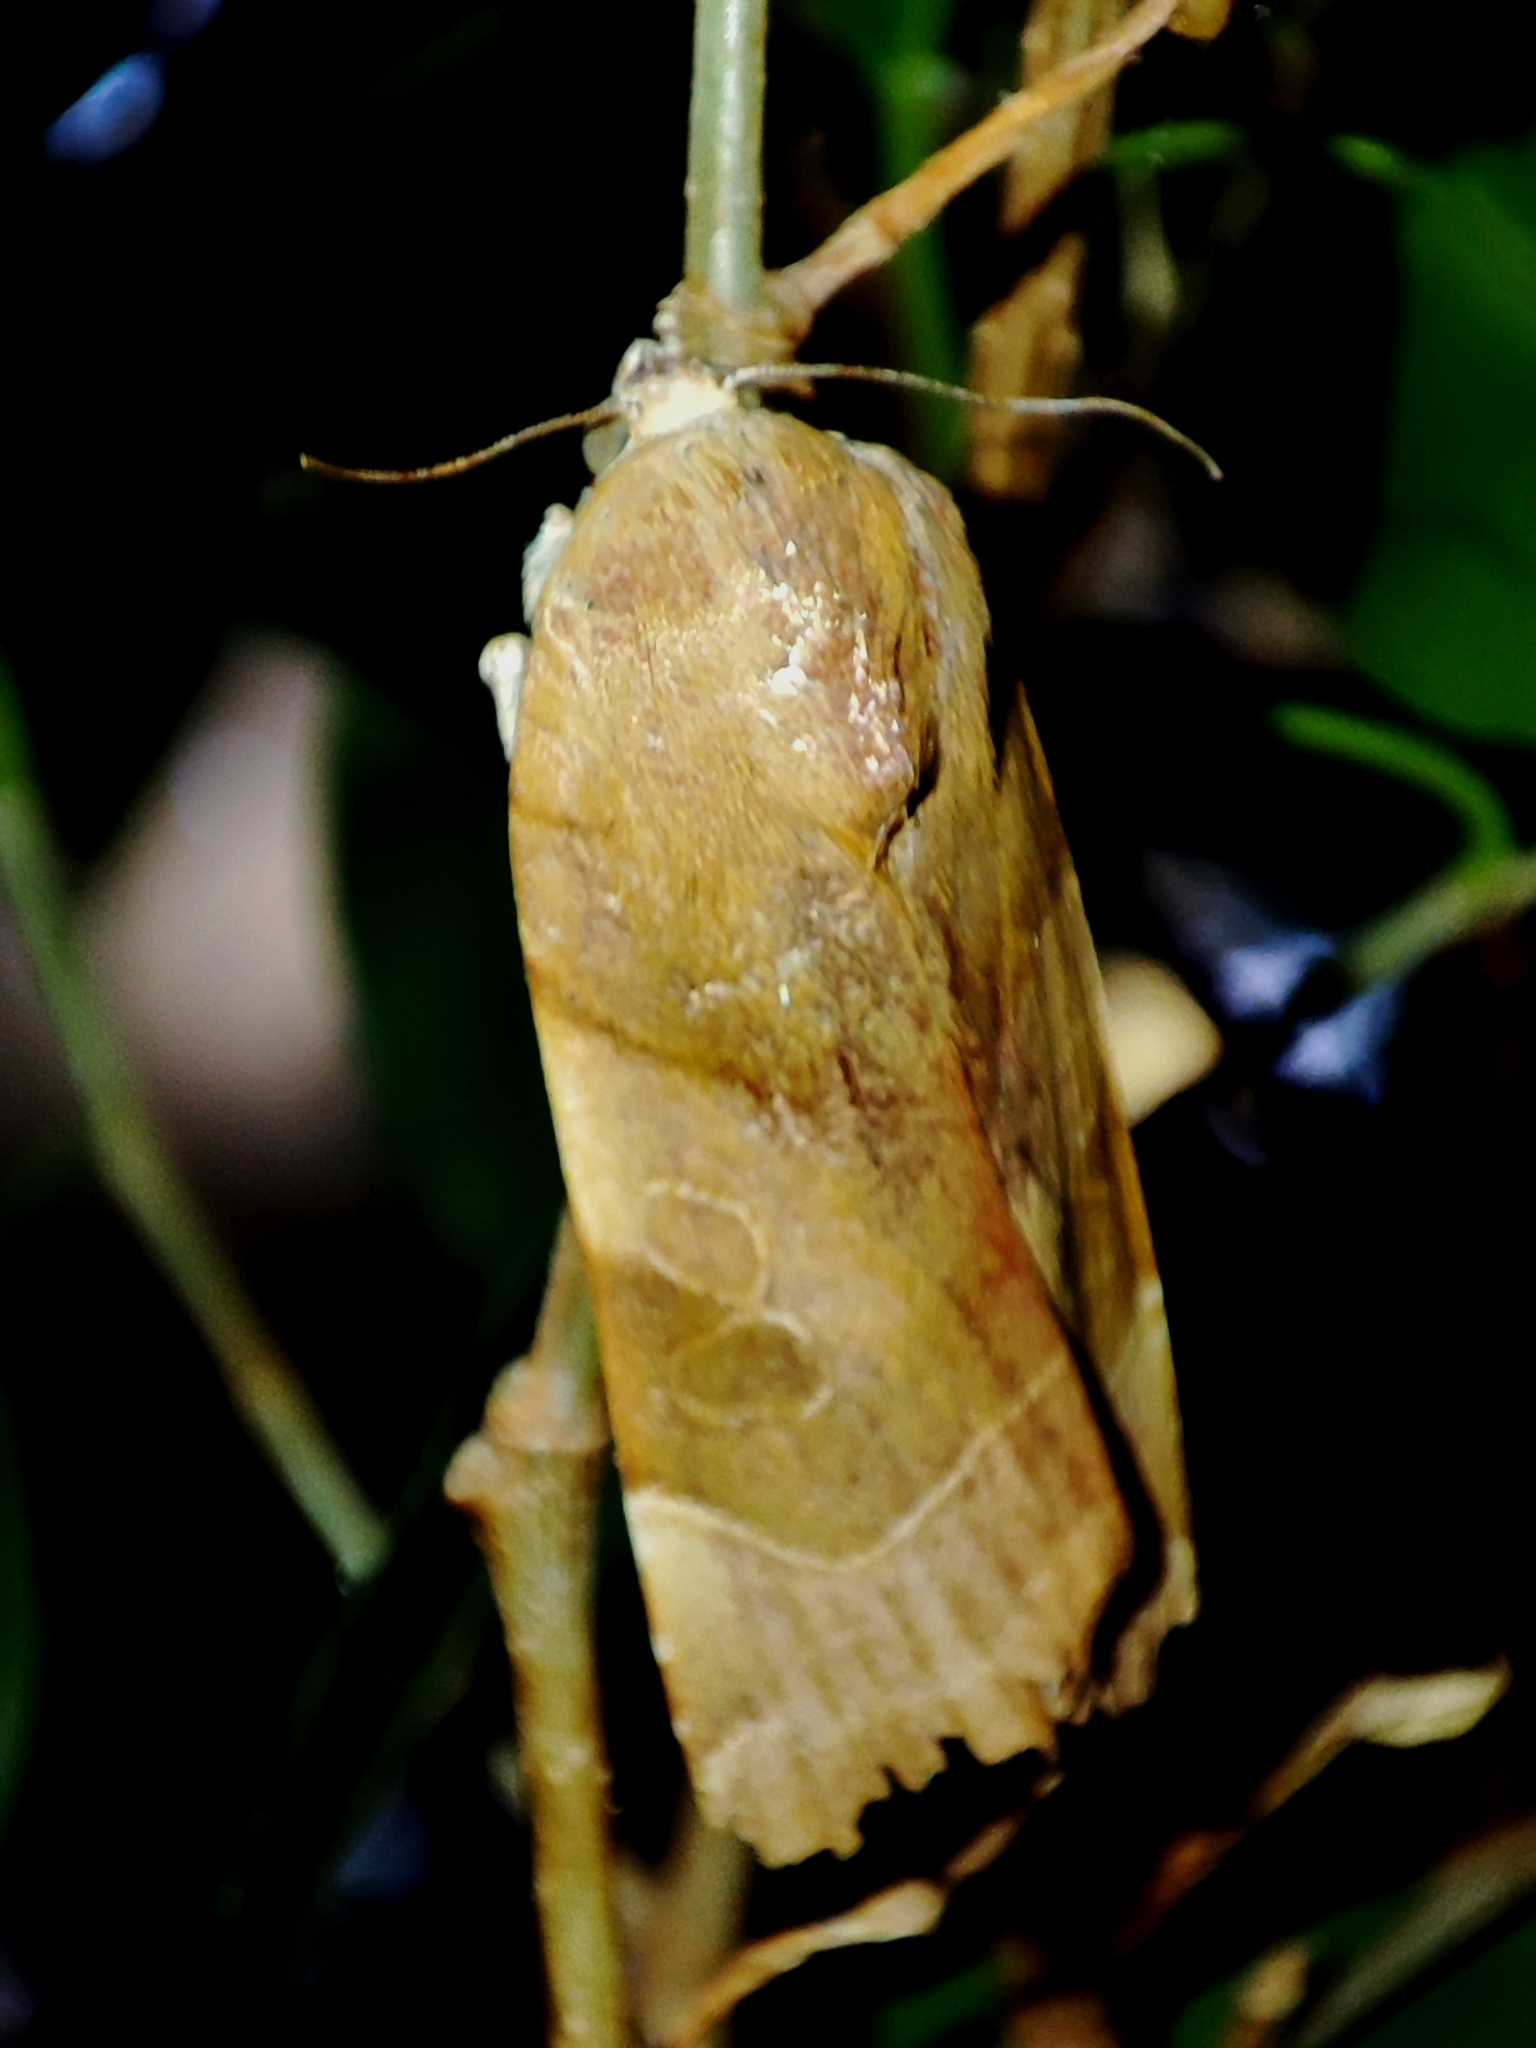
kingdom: Animalia
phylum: Arthropoda
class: Insecta
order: Lepidoptera
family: Noctuidae
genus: Noctua
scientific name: Noctua fimbriata
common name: Broad-bordered yellow underwing
